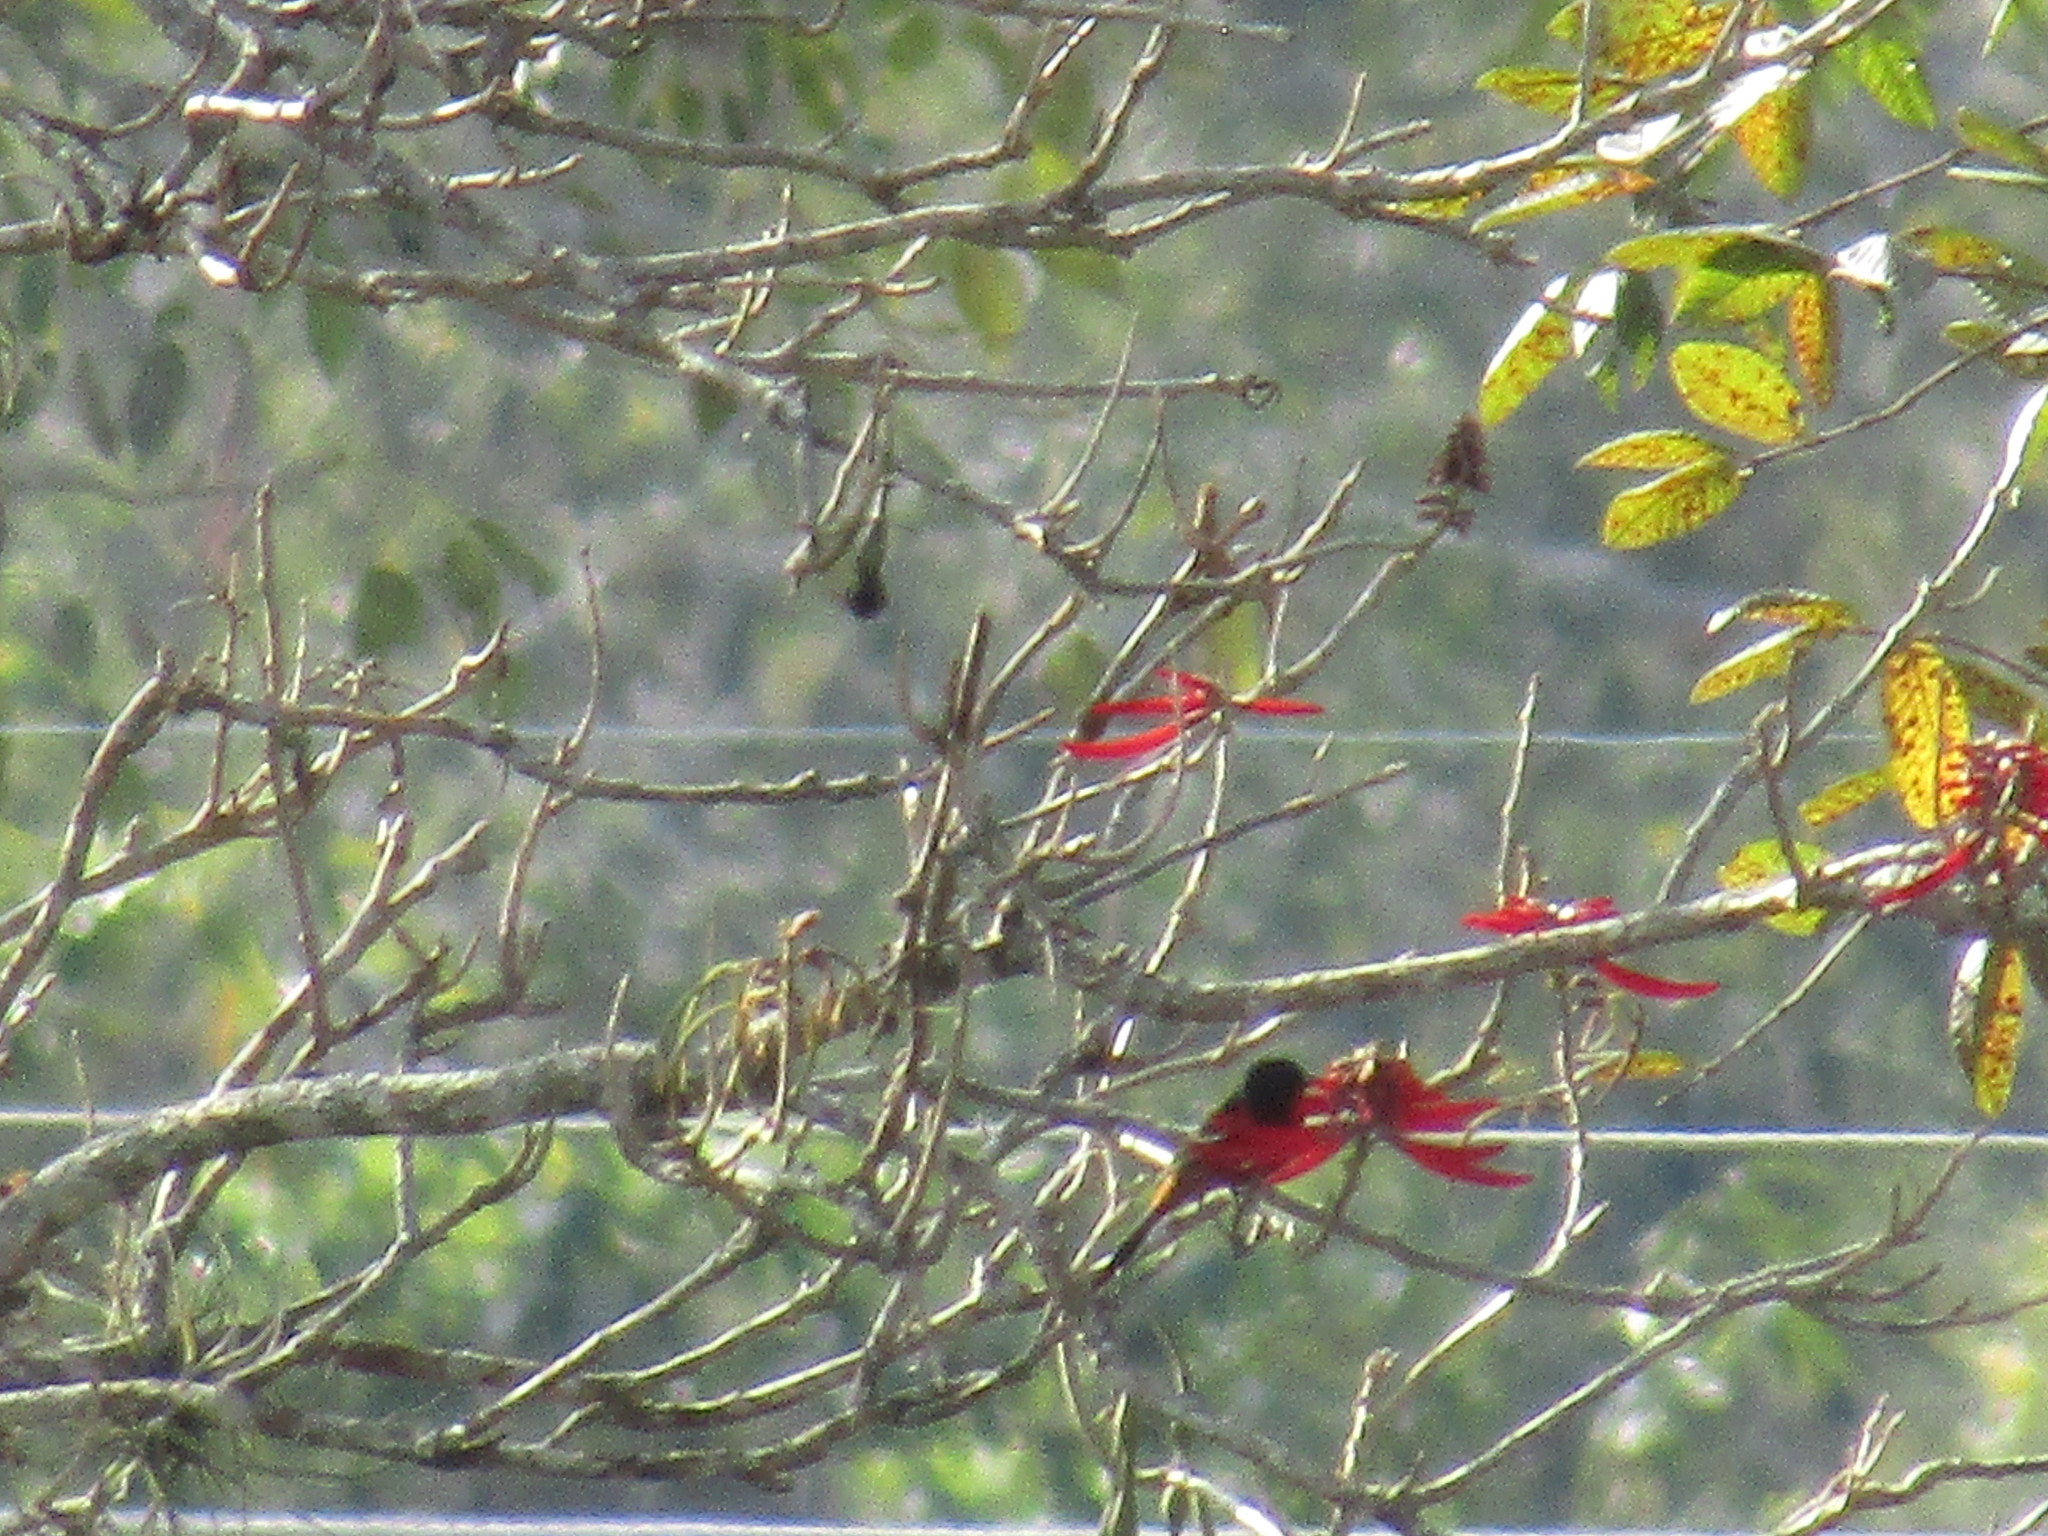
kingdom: Animalia
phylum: Chordata
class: Aves
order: Passeriformes
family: Icteridae
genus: Icterus
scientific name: Icterus spurius
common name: Orchard oriole
